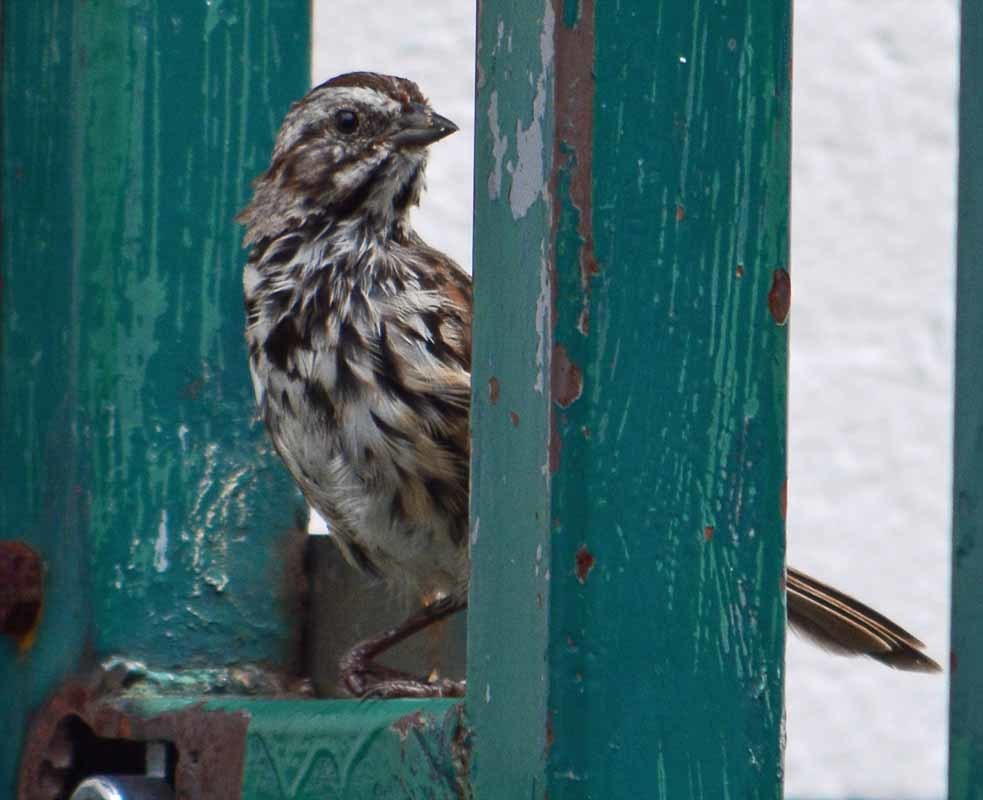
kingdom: Animalia
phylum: Chordata
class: Aves
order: Passeriformes
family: Passerellidae
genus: Melospiza
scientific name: Melospiza melodia
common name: Song sparrow
